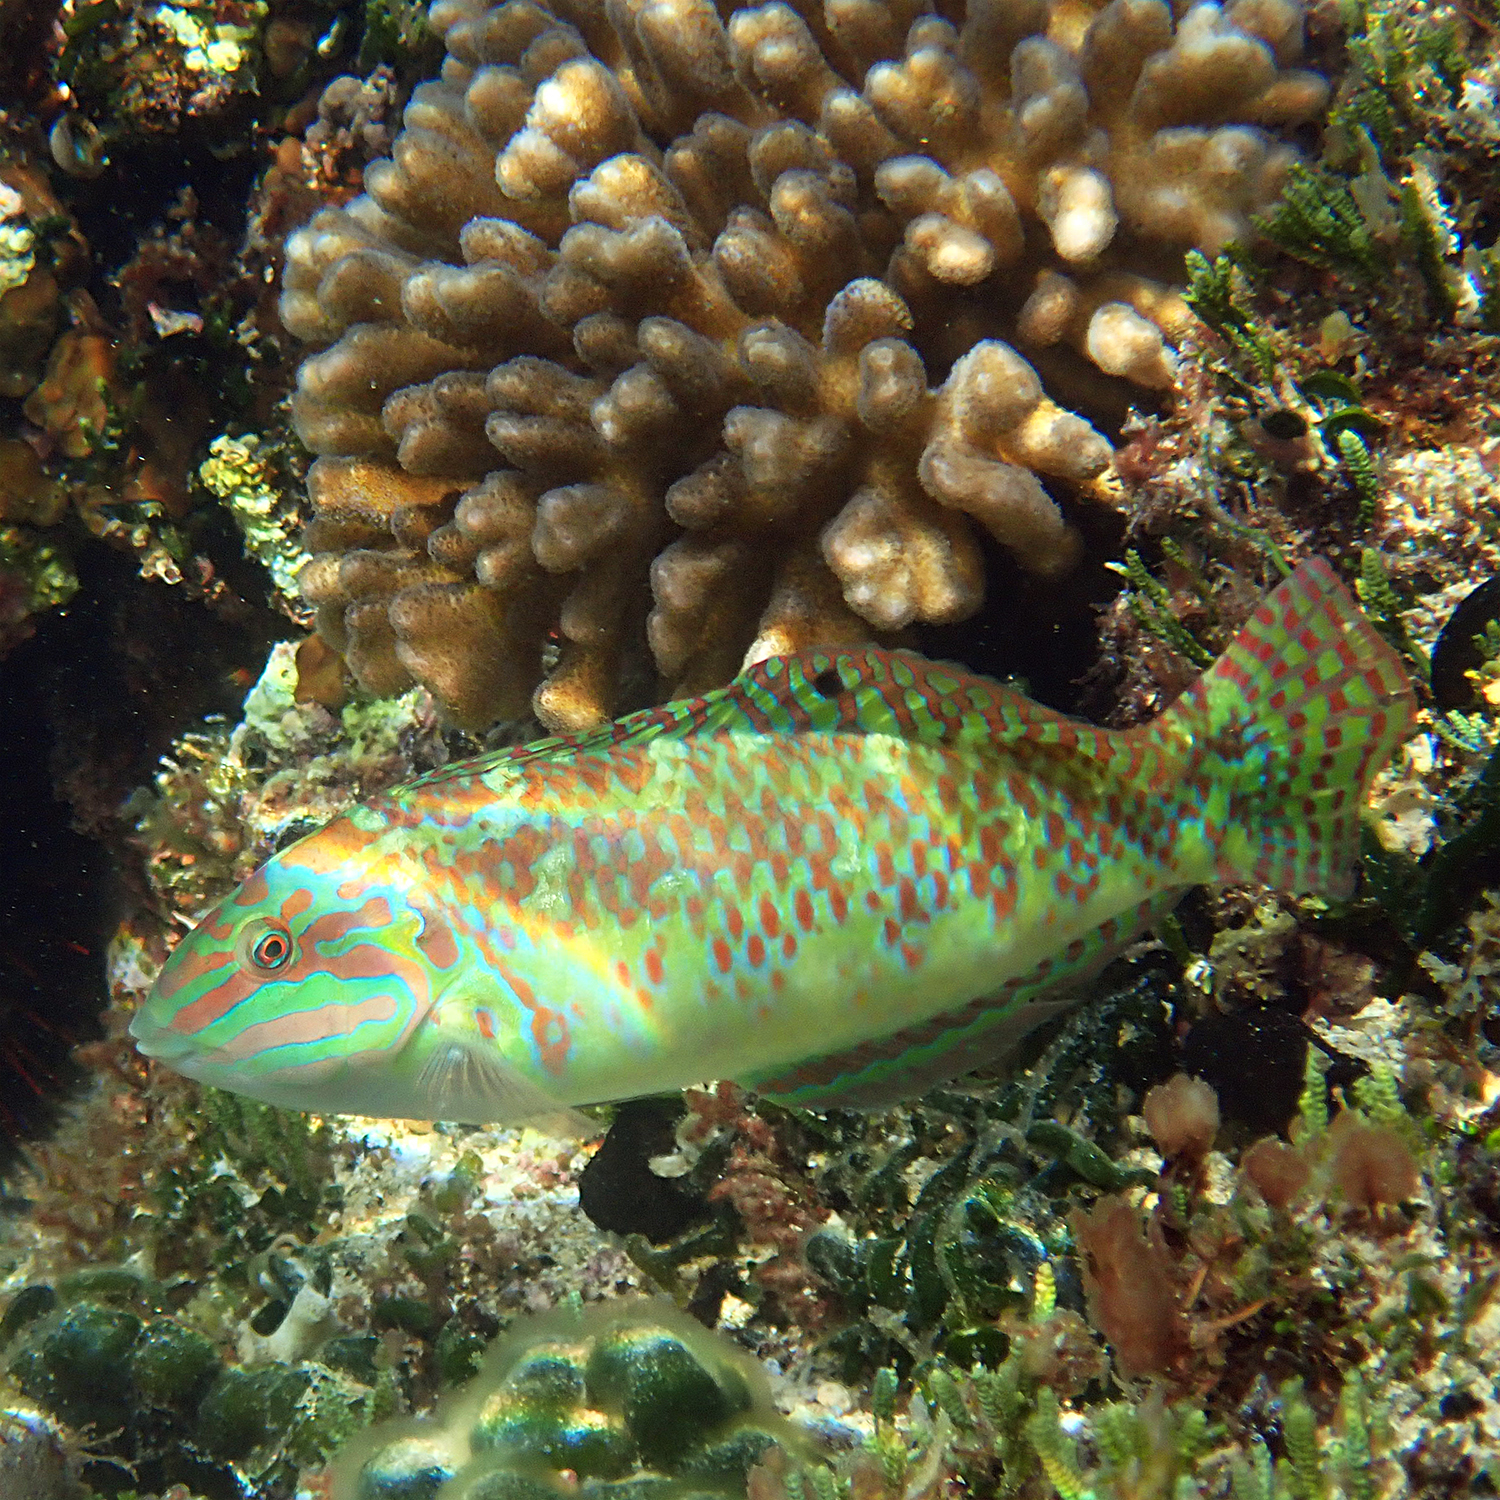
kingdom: Animalia
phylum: Chordata
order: Perciformes
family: Labridae
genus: Halichoeres
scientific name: Halichoeres margaritaceus
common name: Pink-belly wrasse
